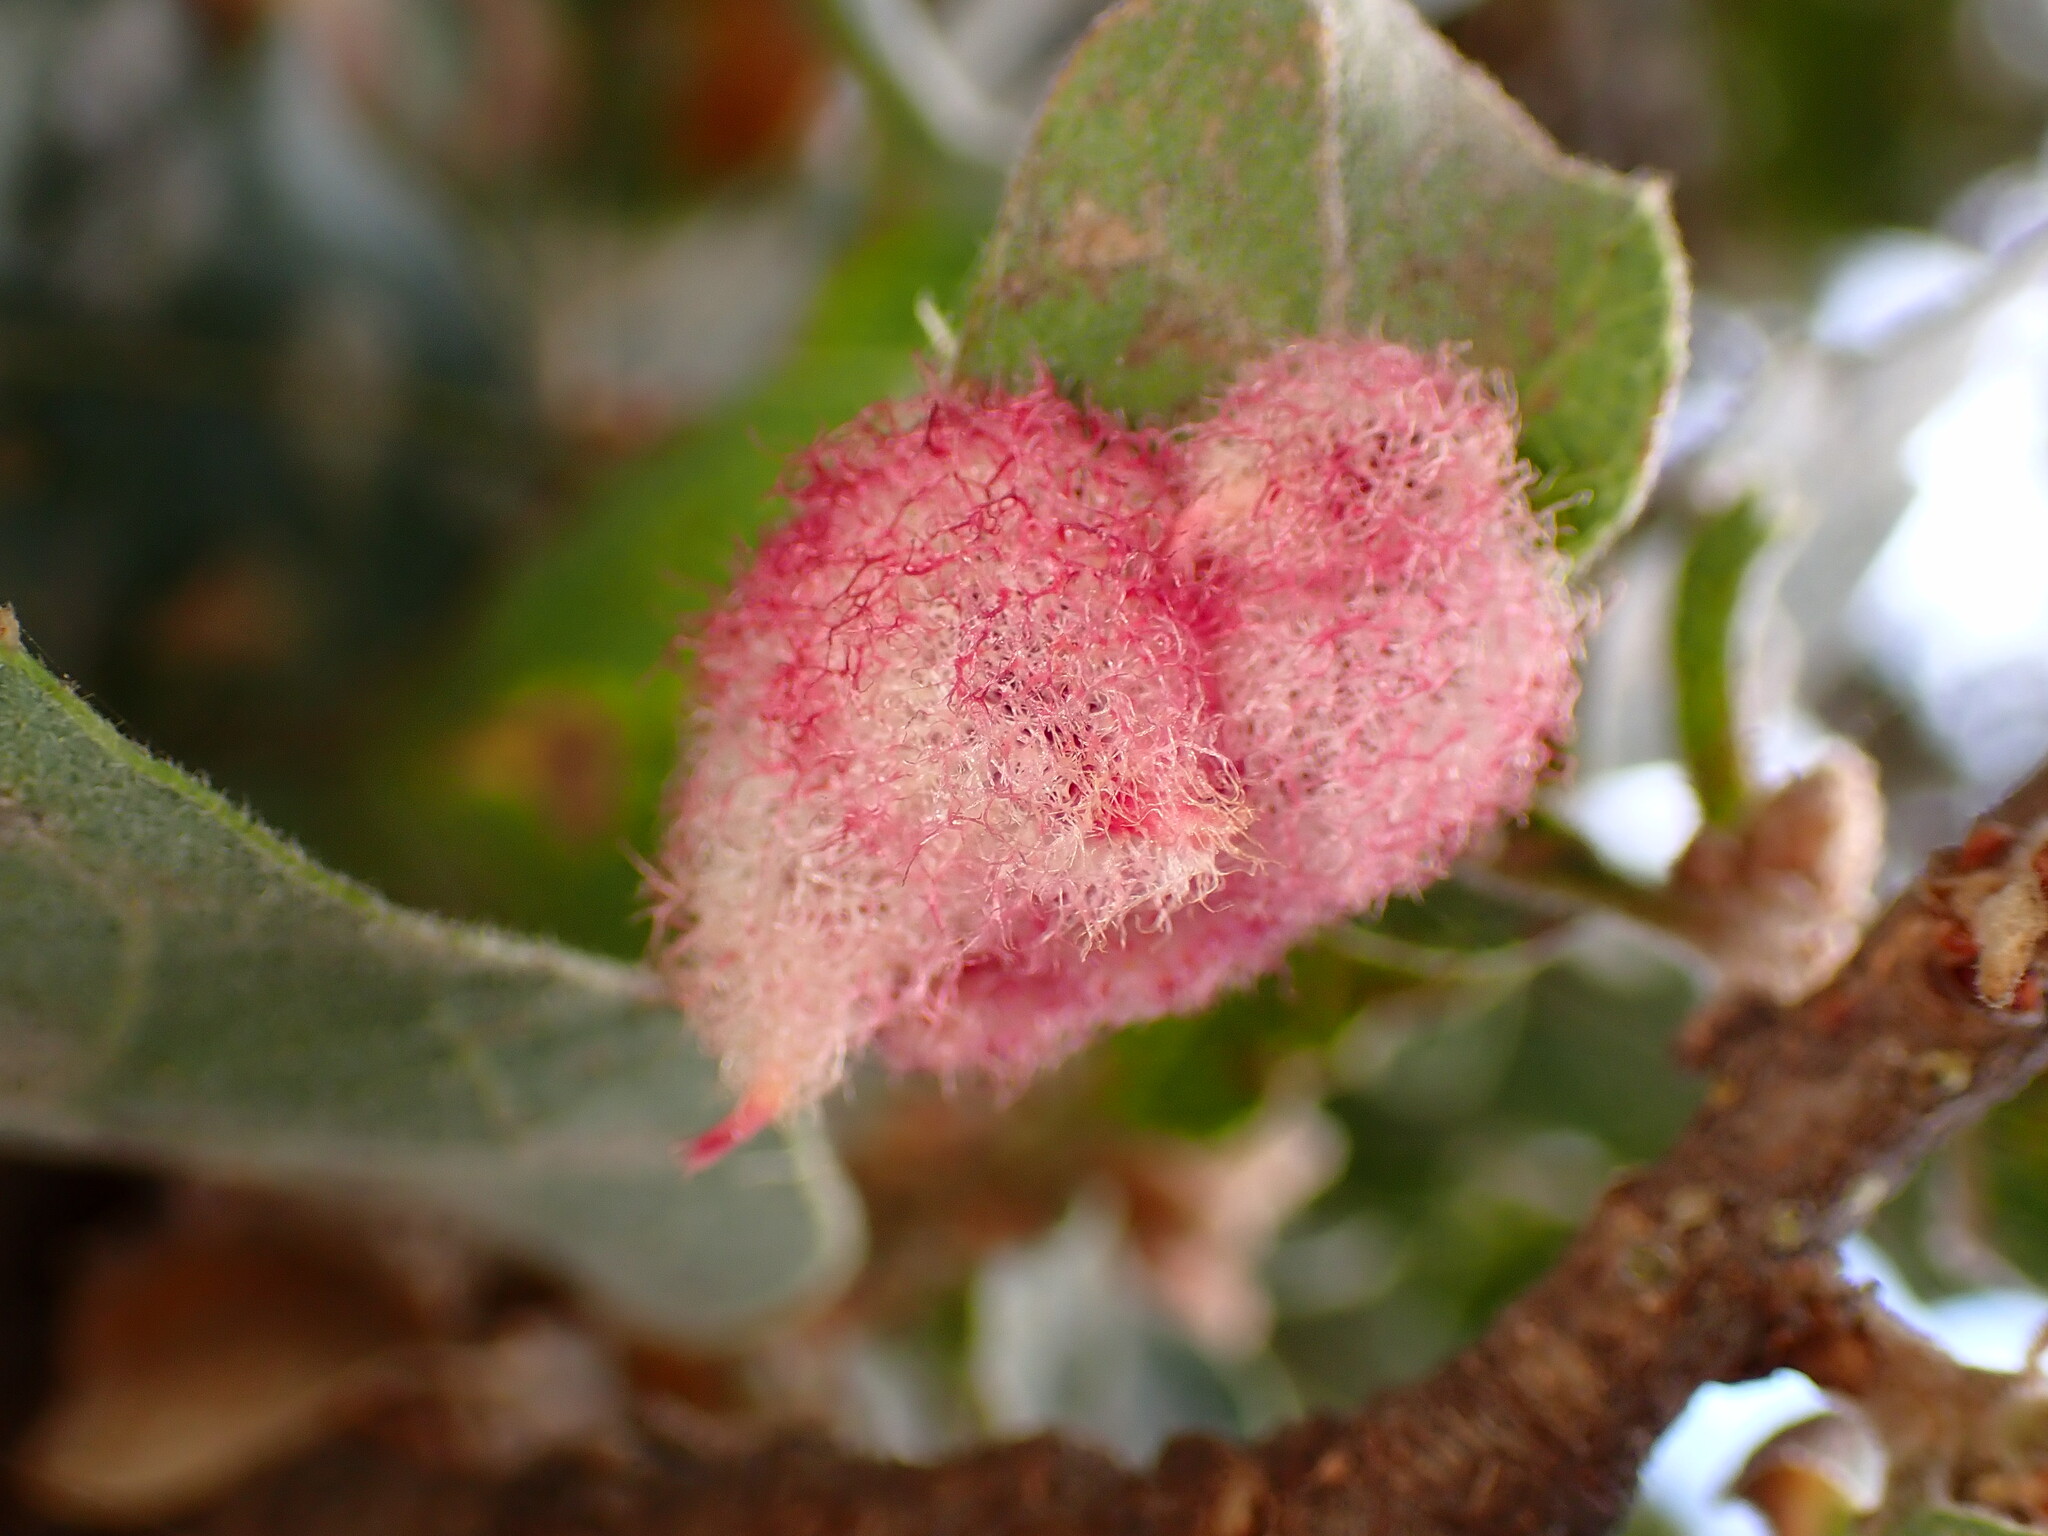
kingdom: Animalia
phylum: Arthropoda
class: Insecta
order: Hymenoptera
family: Cynipidae
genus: Andricus
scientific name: Andricus
